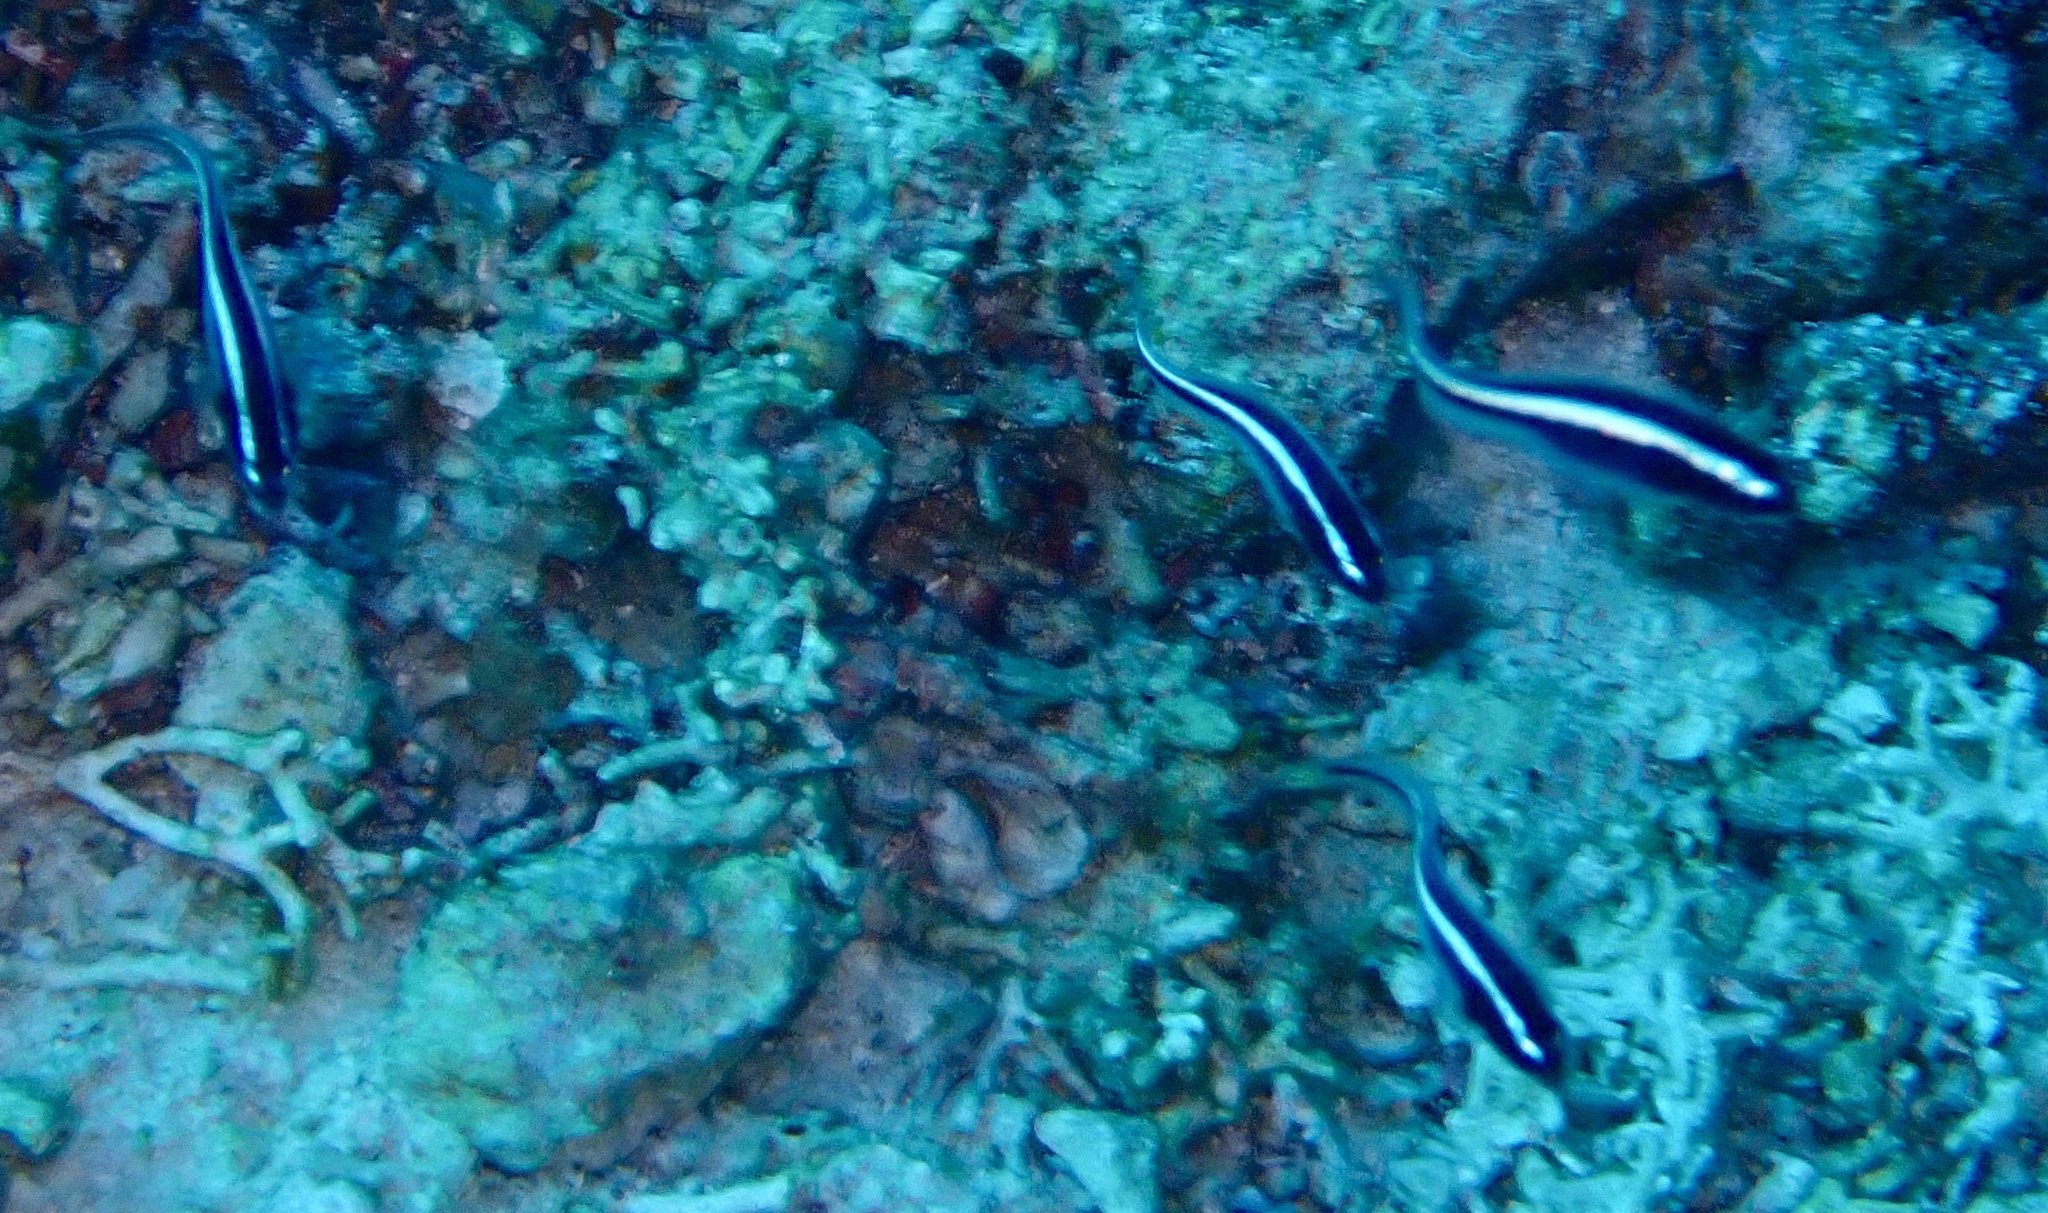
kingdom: Animalia
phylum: Chordata
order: Perciformes
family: Pholidichthyidae
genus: Pholidichthys
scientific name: Pholidichthys leucotaenia
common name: Convict blenny
